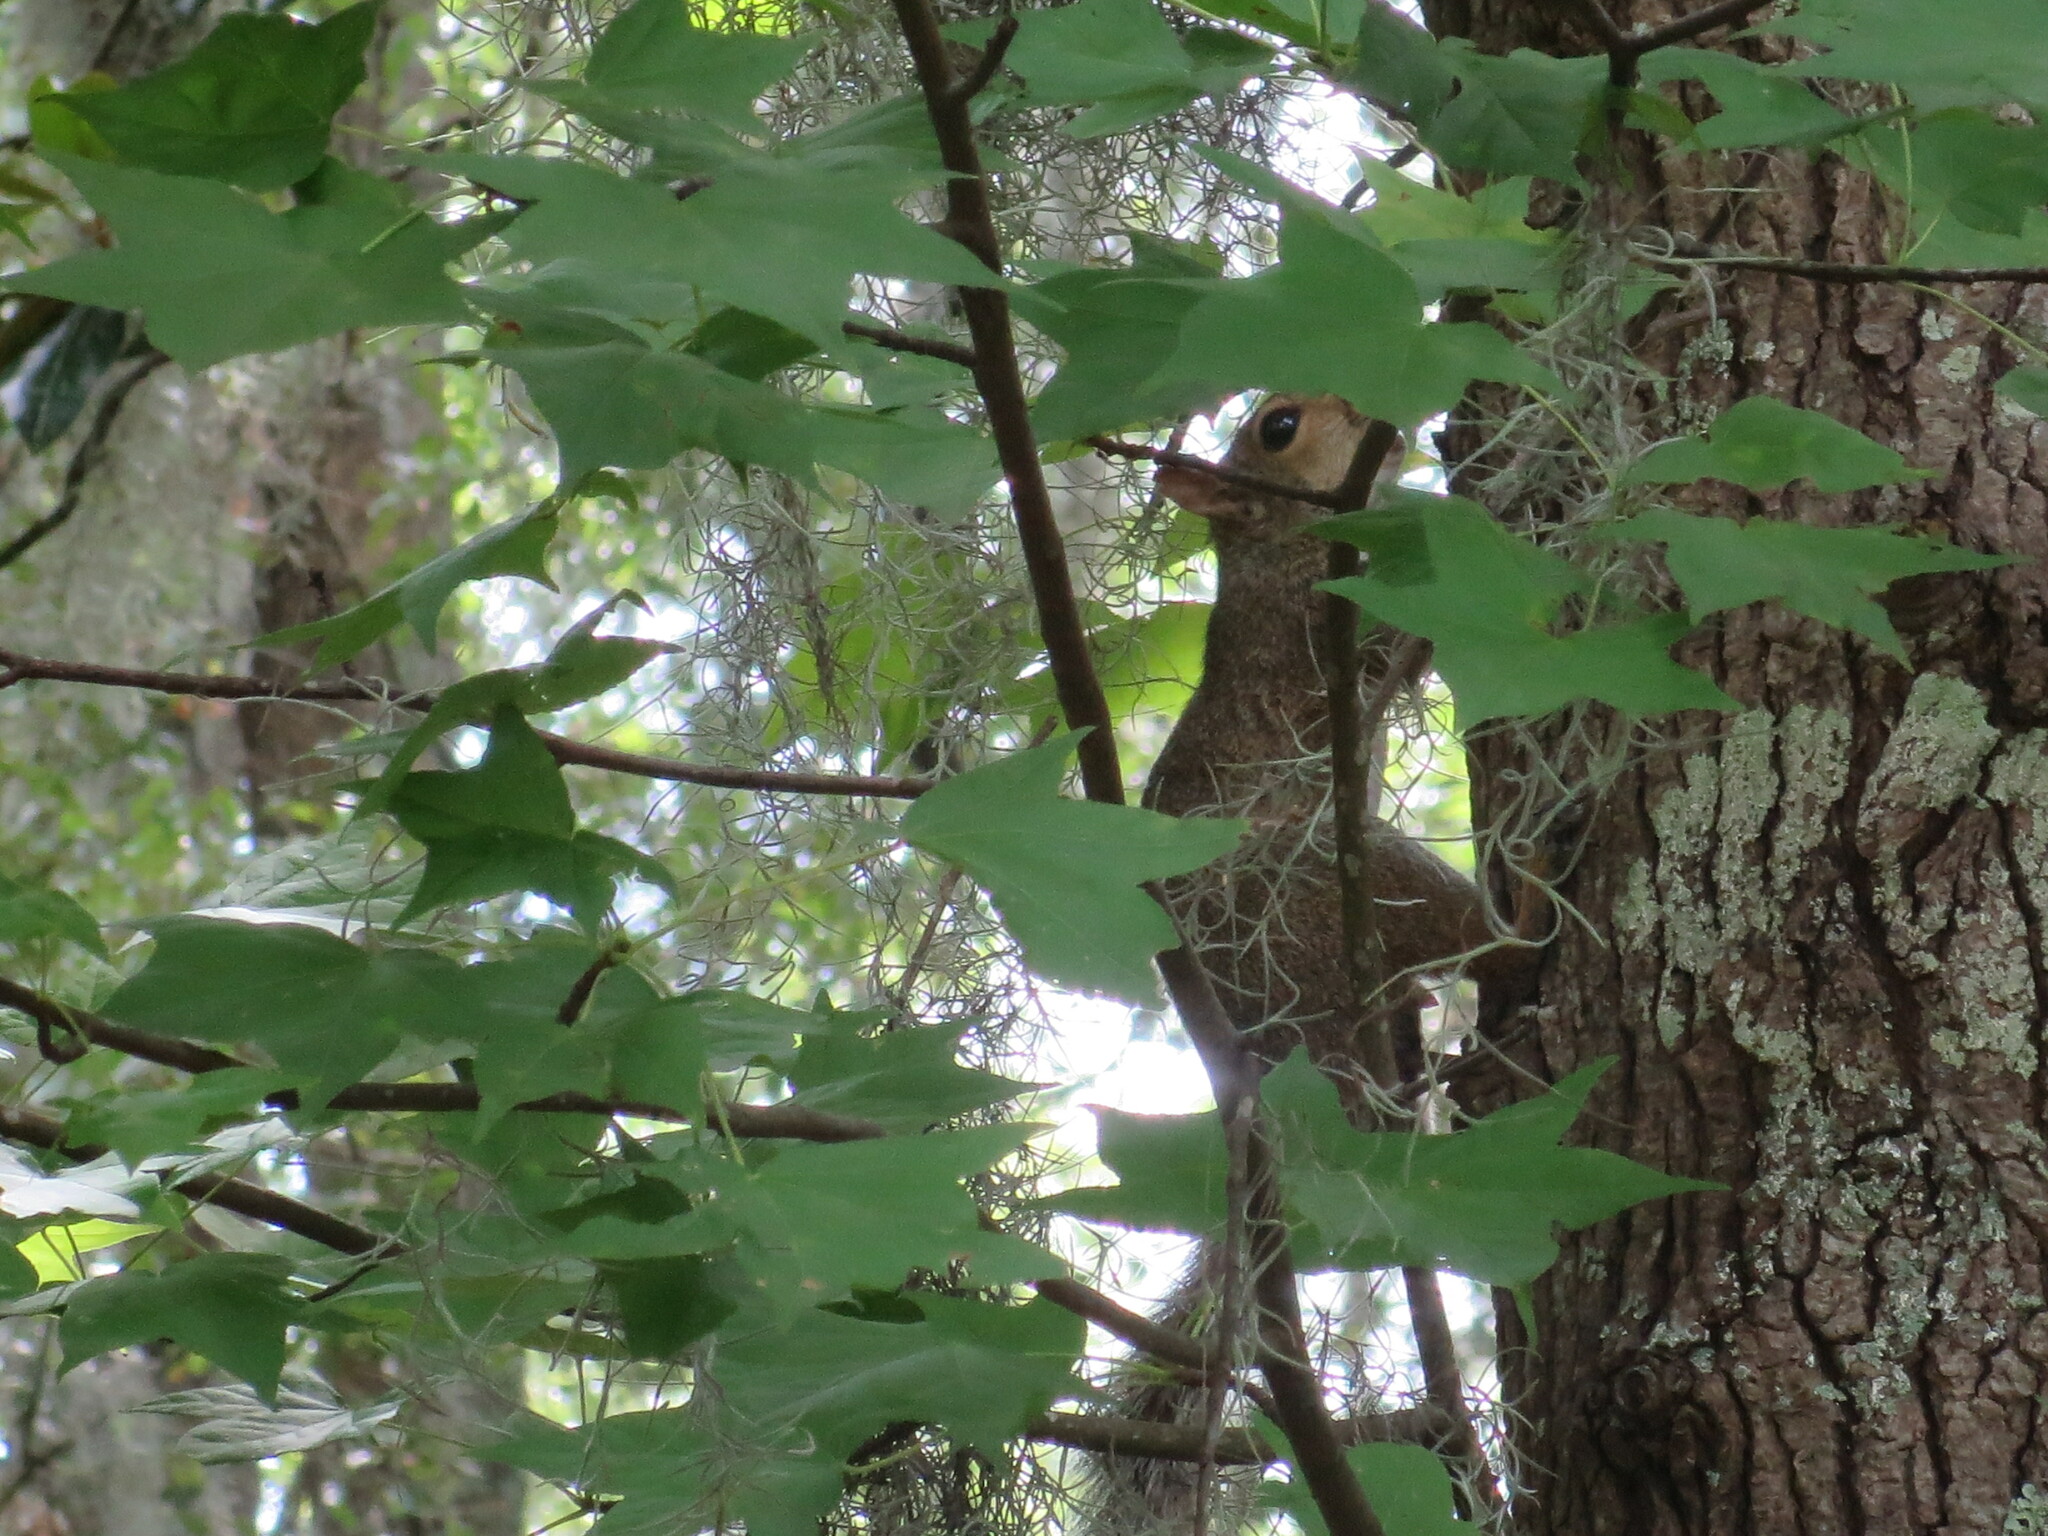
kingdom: Animalia
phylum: Chordata
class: Mammalia
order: Rodentia
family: Sciuridae
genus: Sciurus
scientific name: Sciurus carolinensis
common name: Eastern gray squirrel
